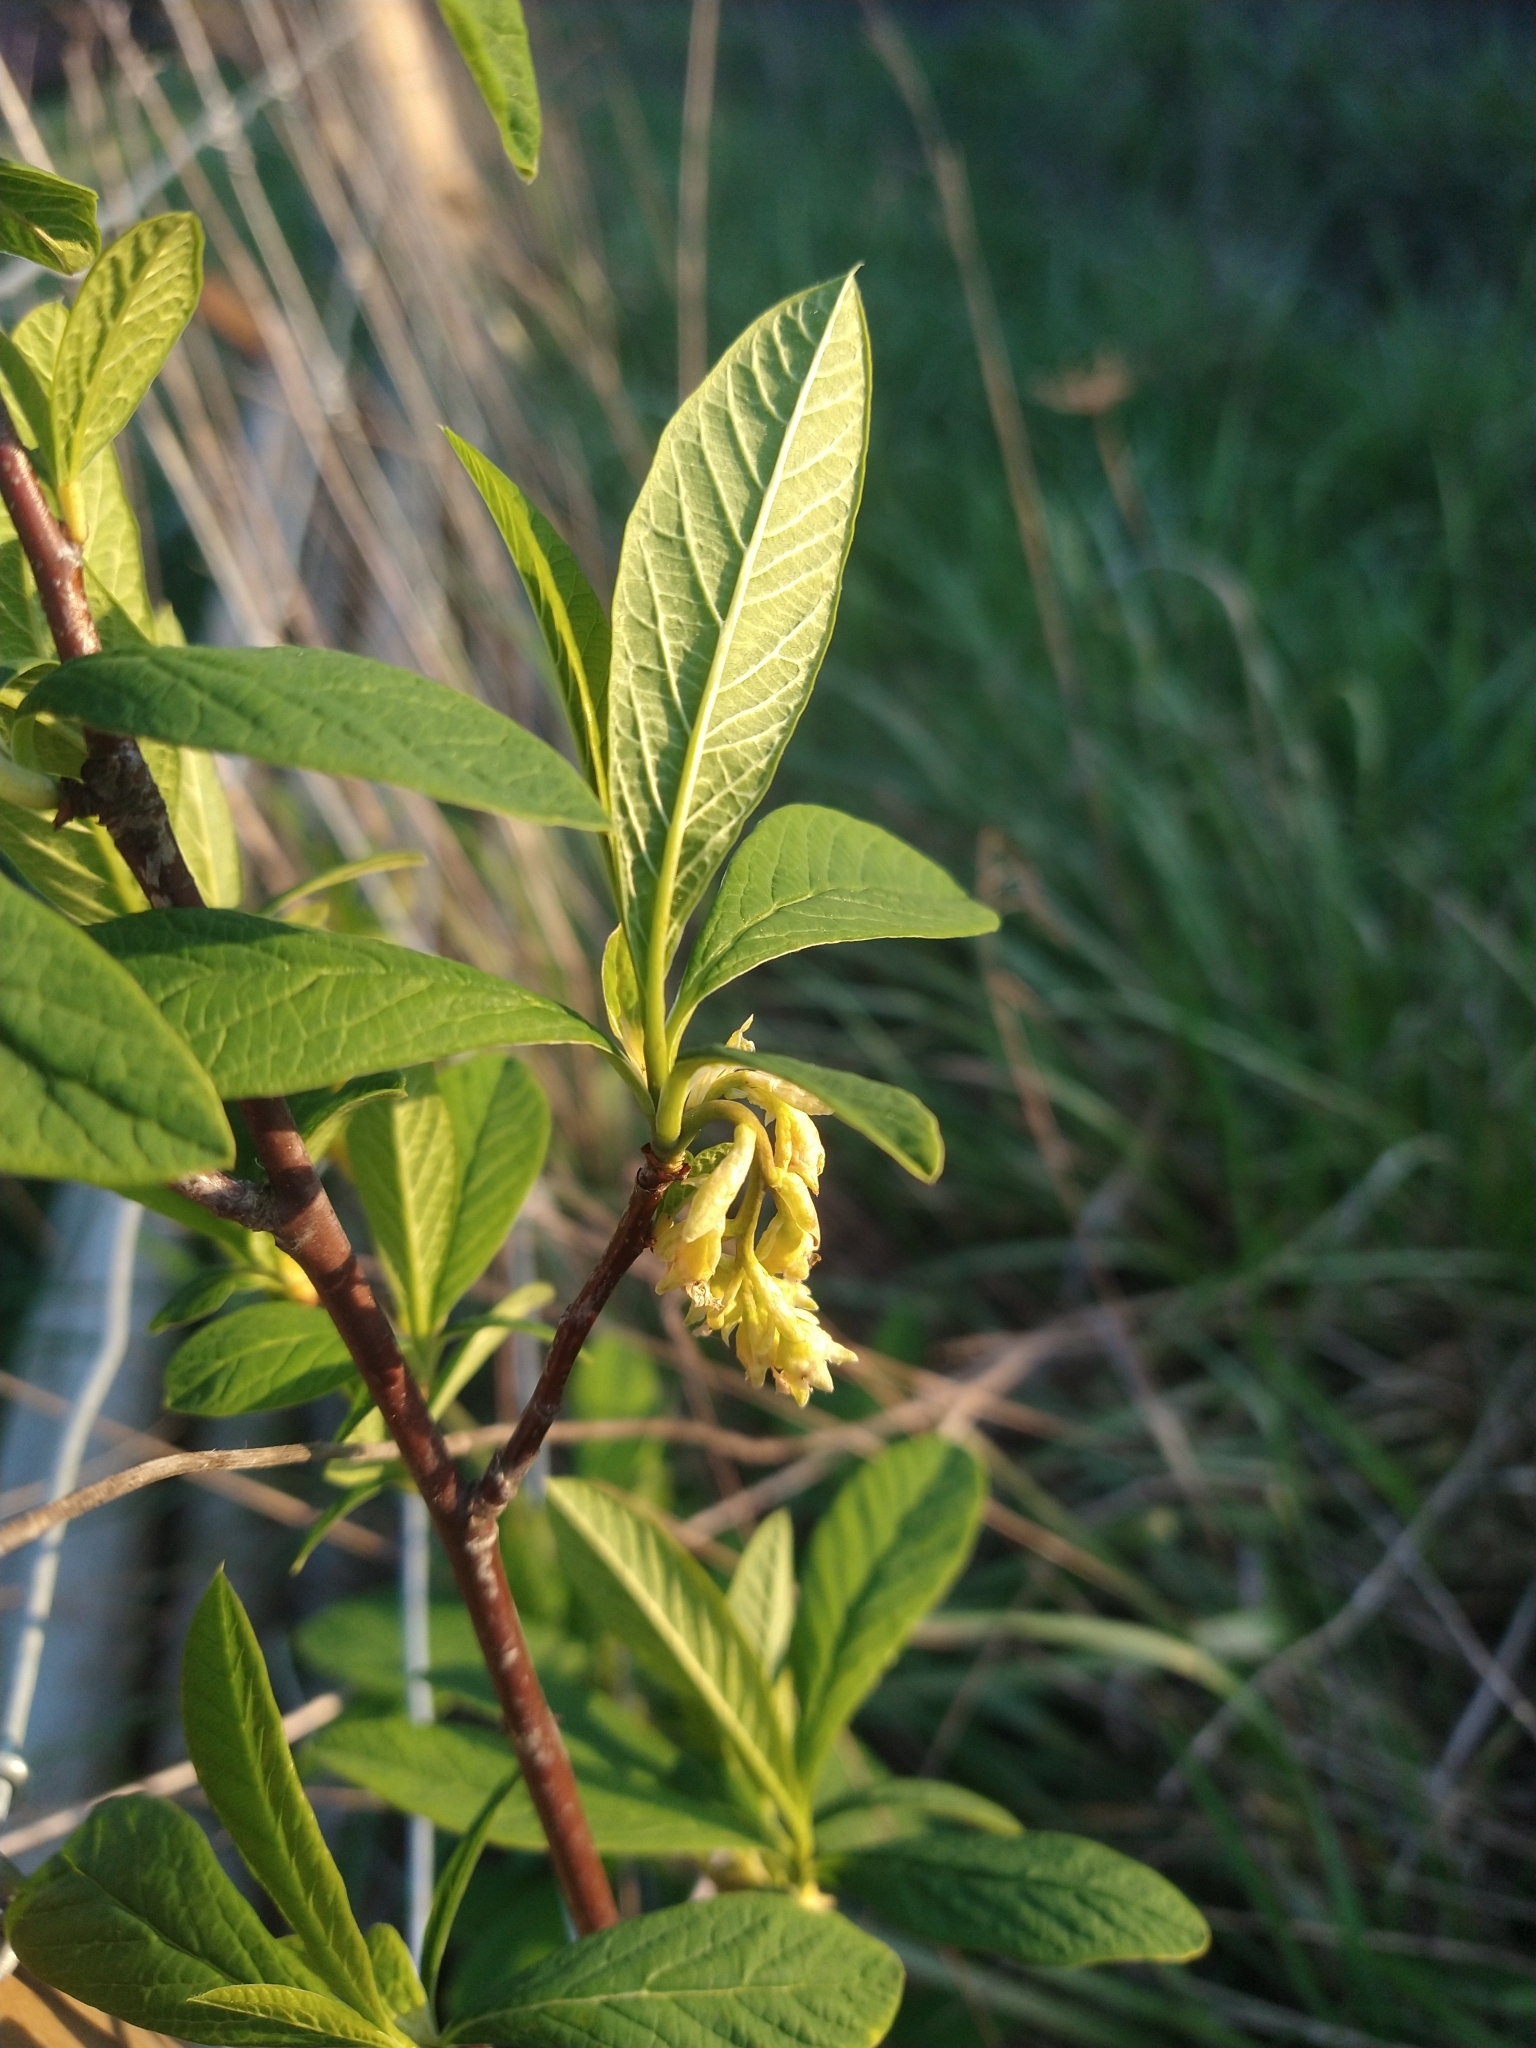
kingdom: Plantae
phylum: Tracheophyta
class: Magnoliopsida
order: Rosales
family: Rosaceae
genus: Oemleria
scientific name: Oemleria cerasiformis
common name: Osoberry
